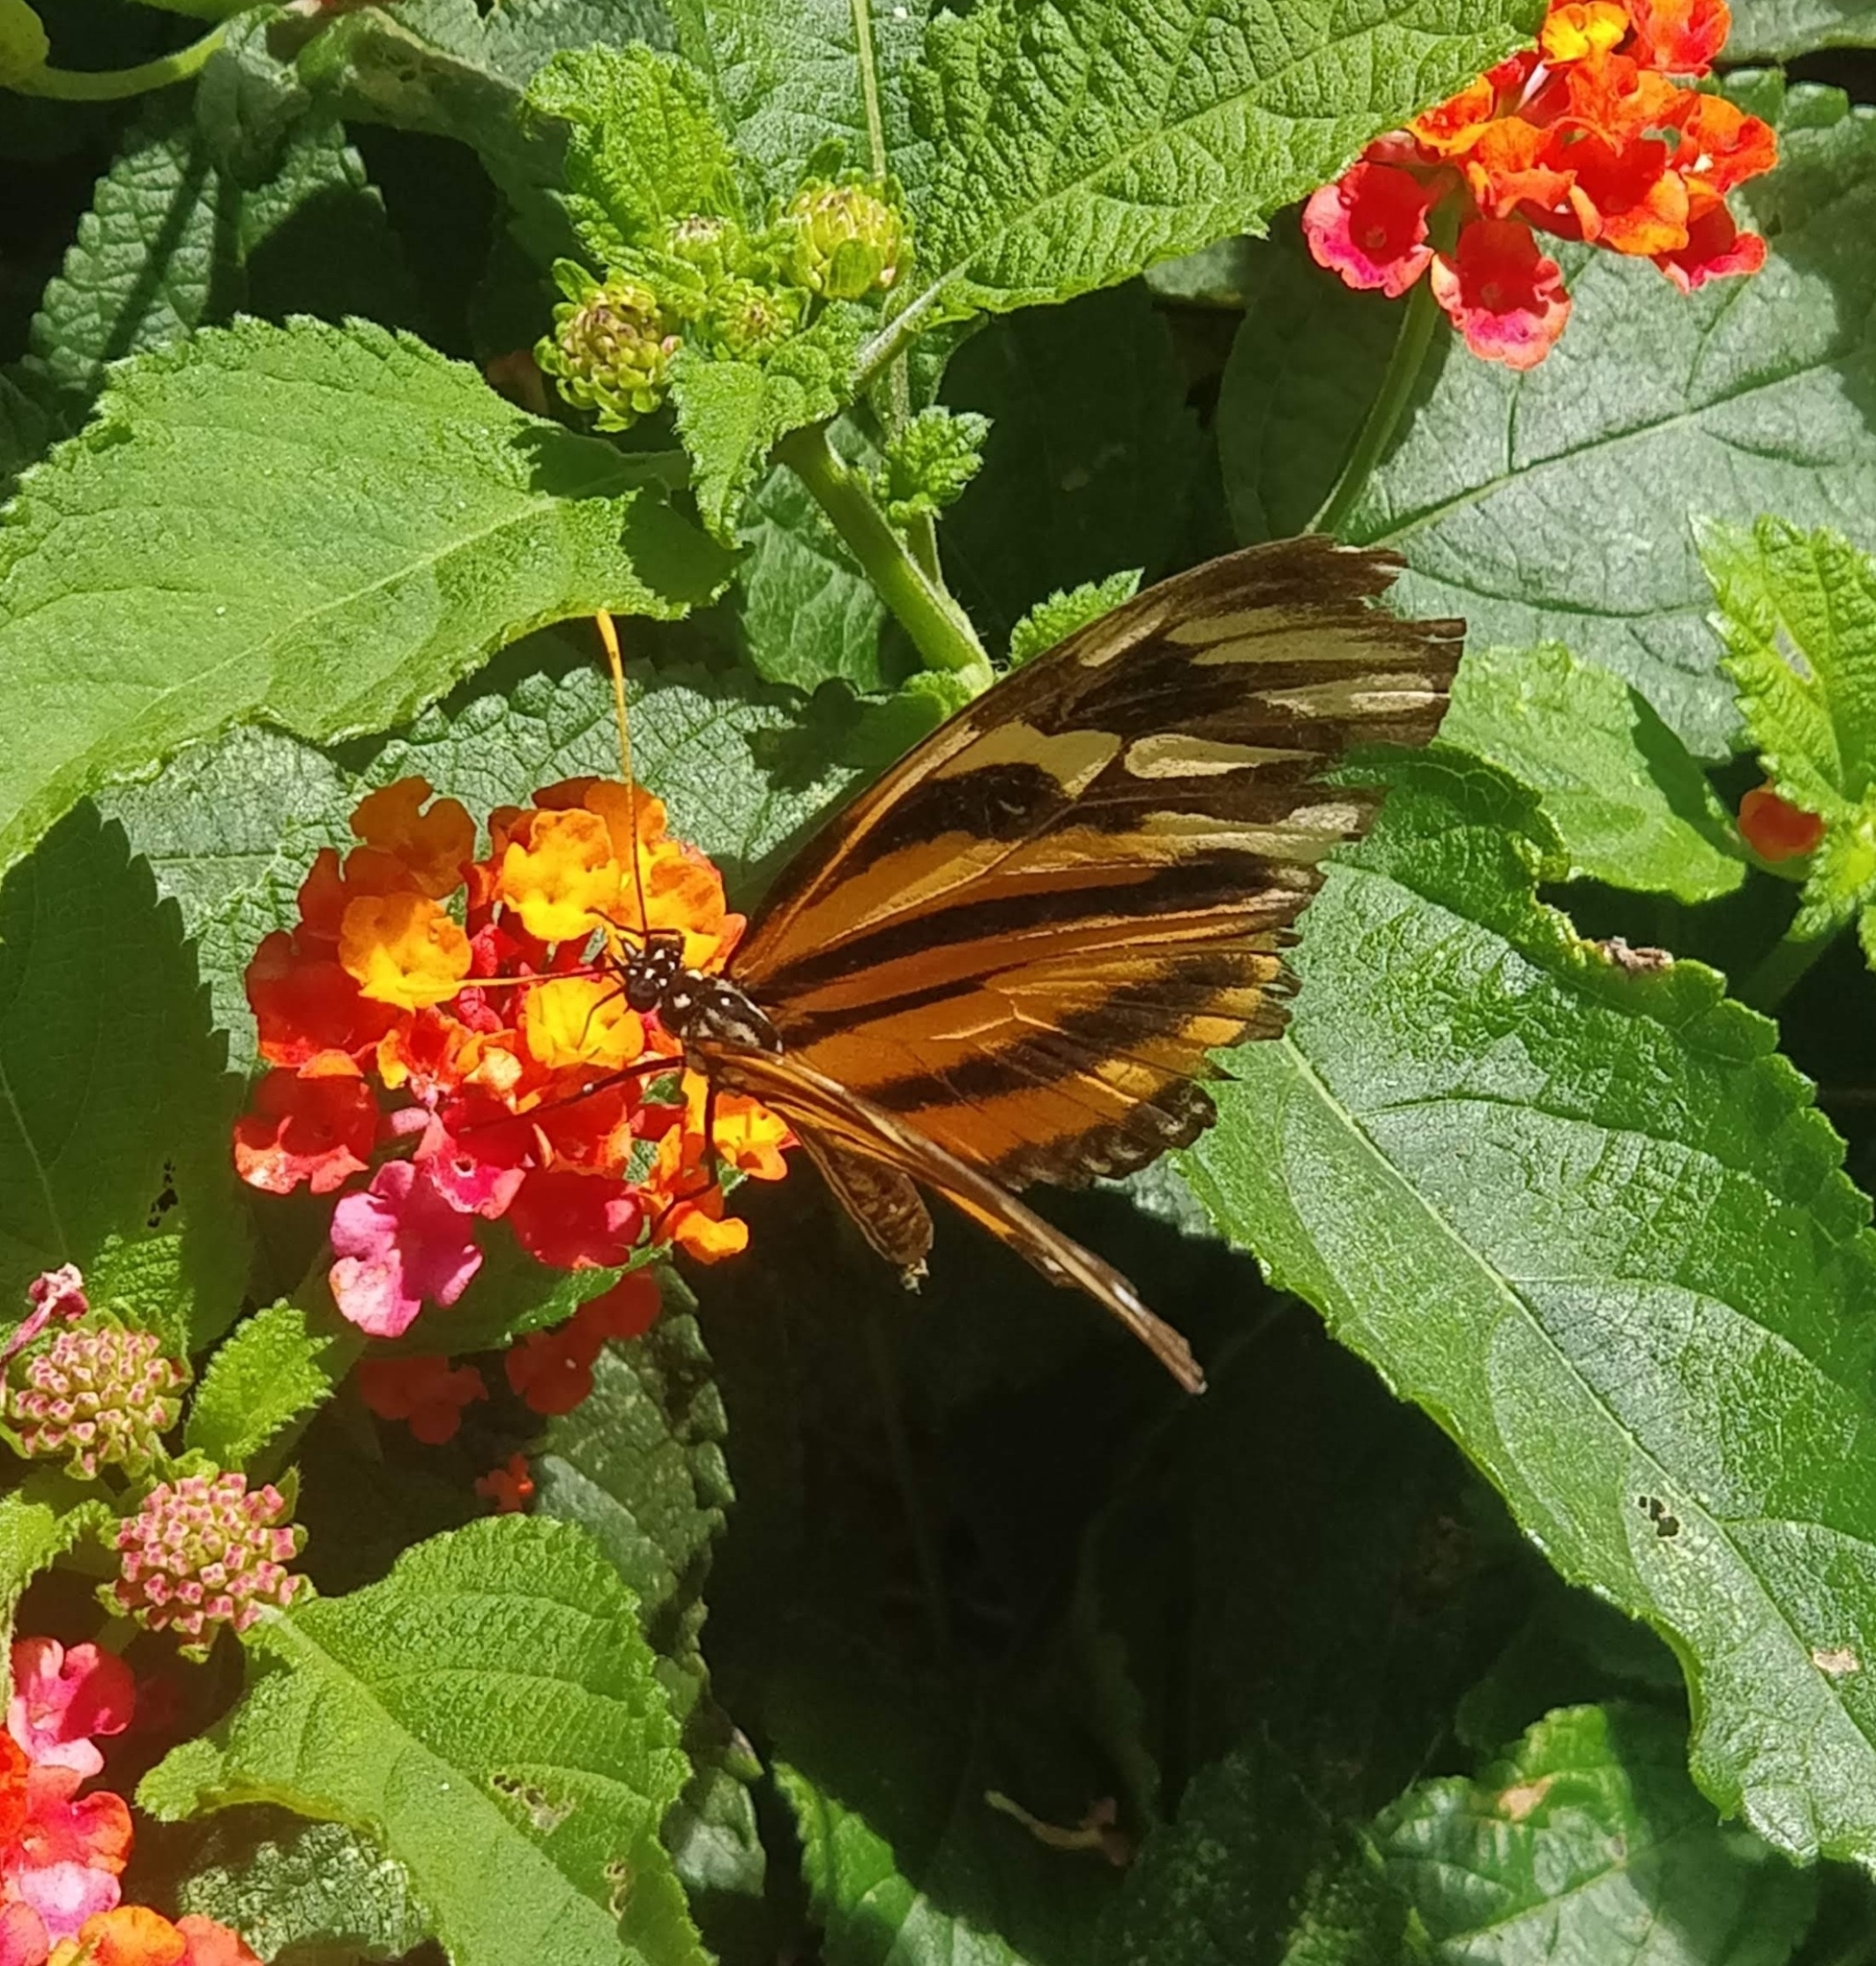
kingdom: Animalia
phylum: Arthropoda
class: Insecta
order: Lepidoptera
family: Nymphalidae
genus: Eueides
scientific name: Eueides isabella
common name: Isabella's longwing
